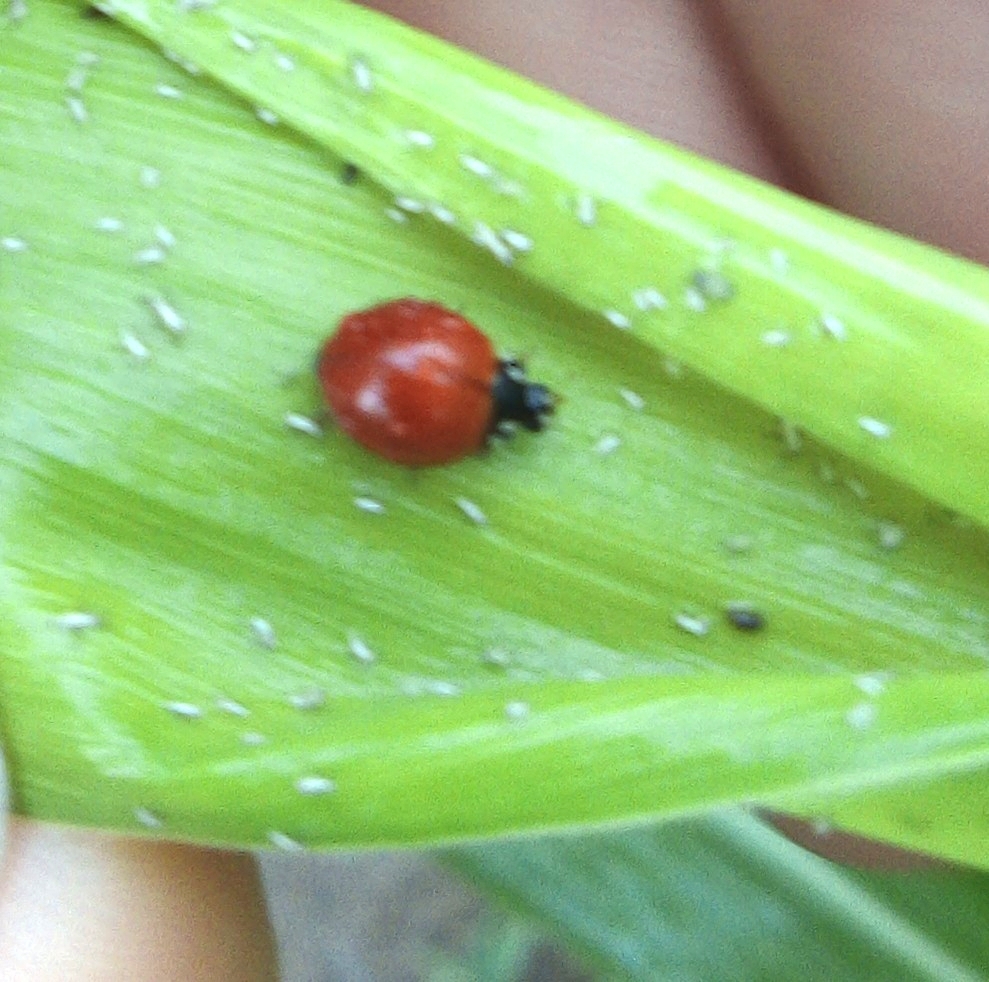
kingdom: Animalia
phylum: Arthropoda
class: Insecta
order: Coleoptera
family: Coccinellidae
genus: Cycloneda
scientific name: Cycloneda sanguinea
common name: Ladybird beetle
